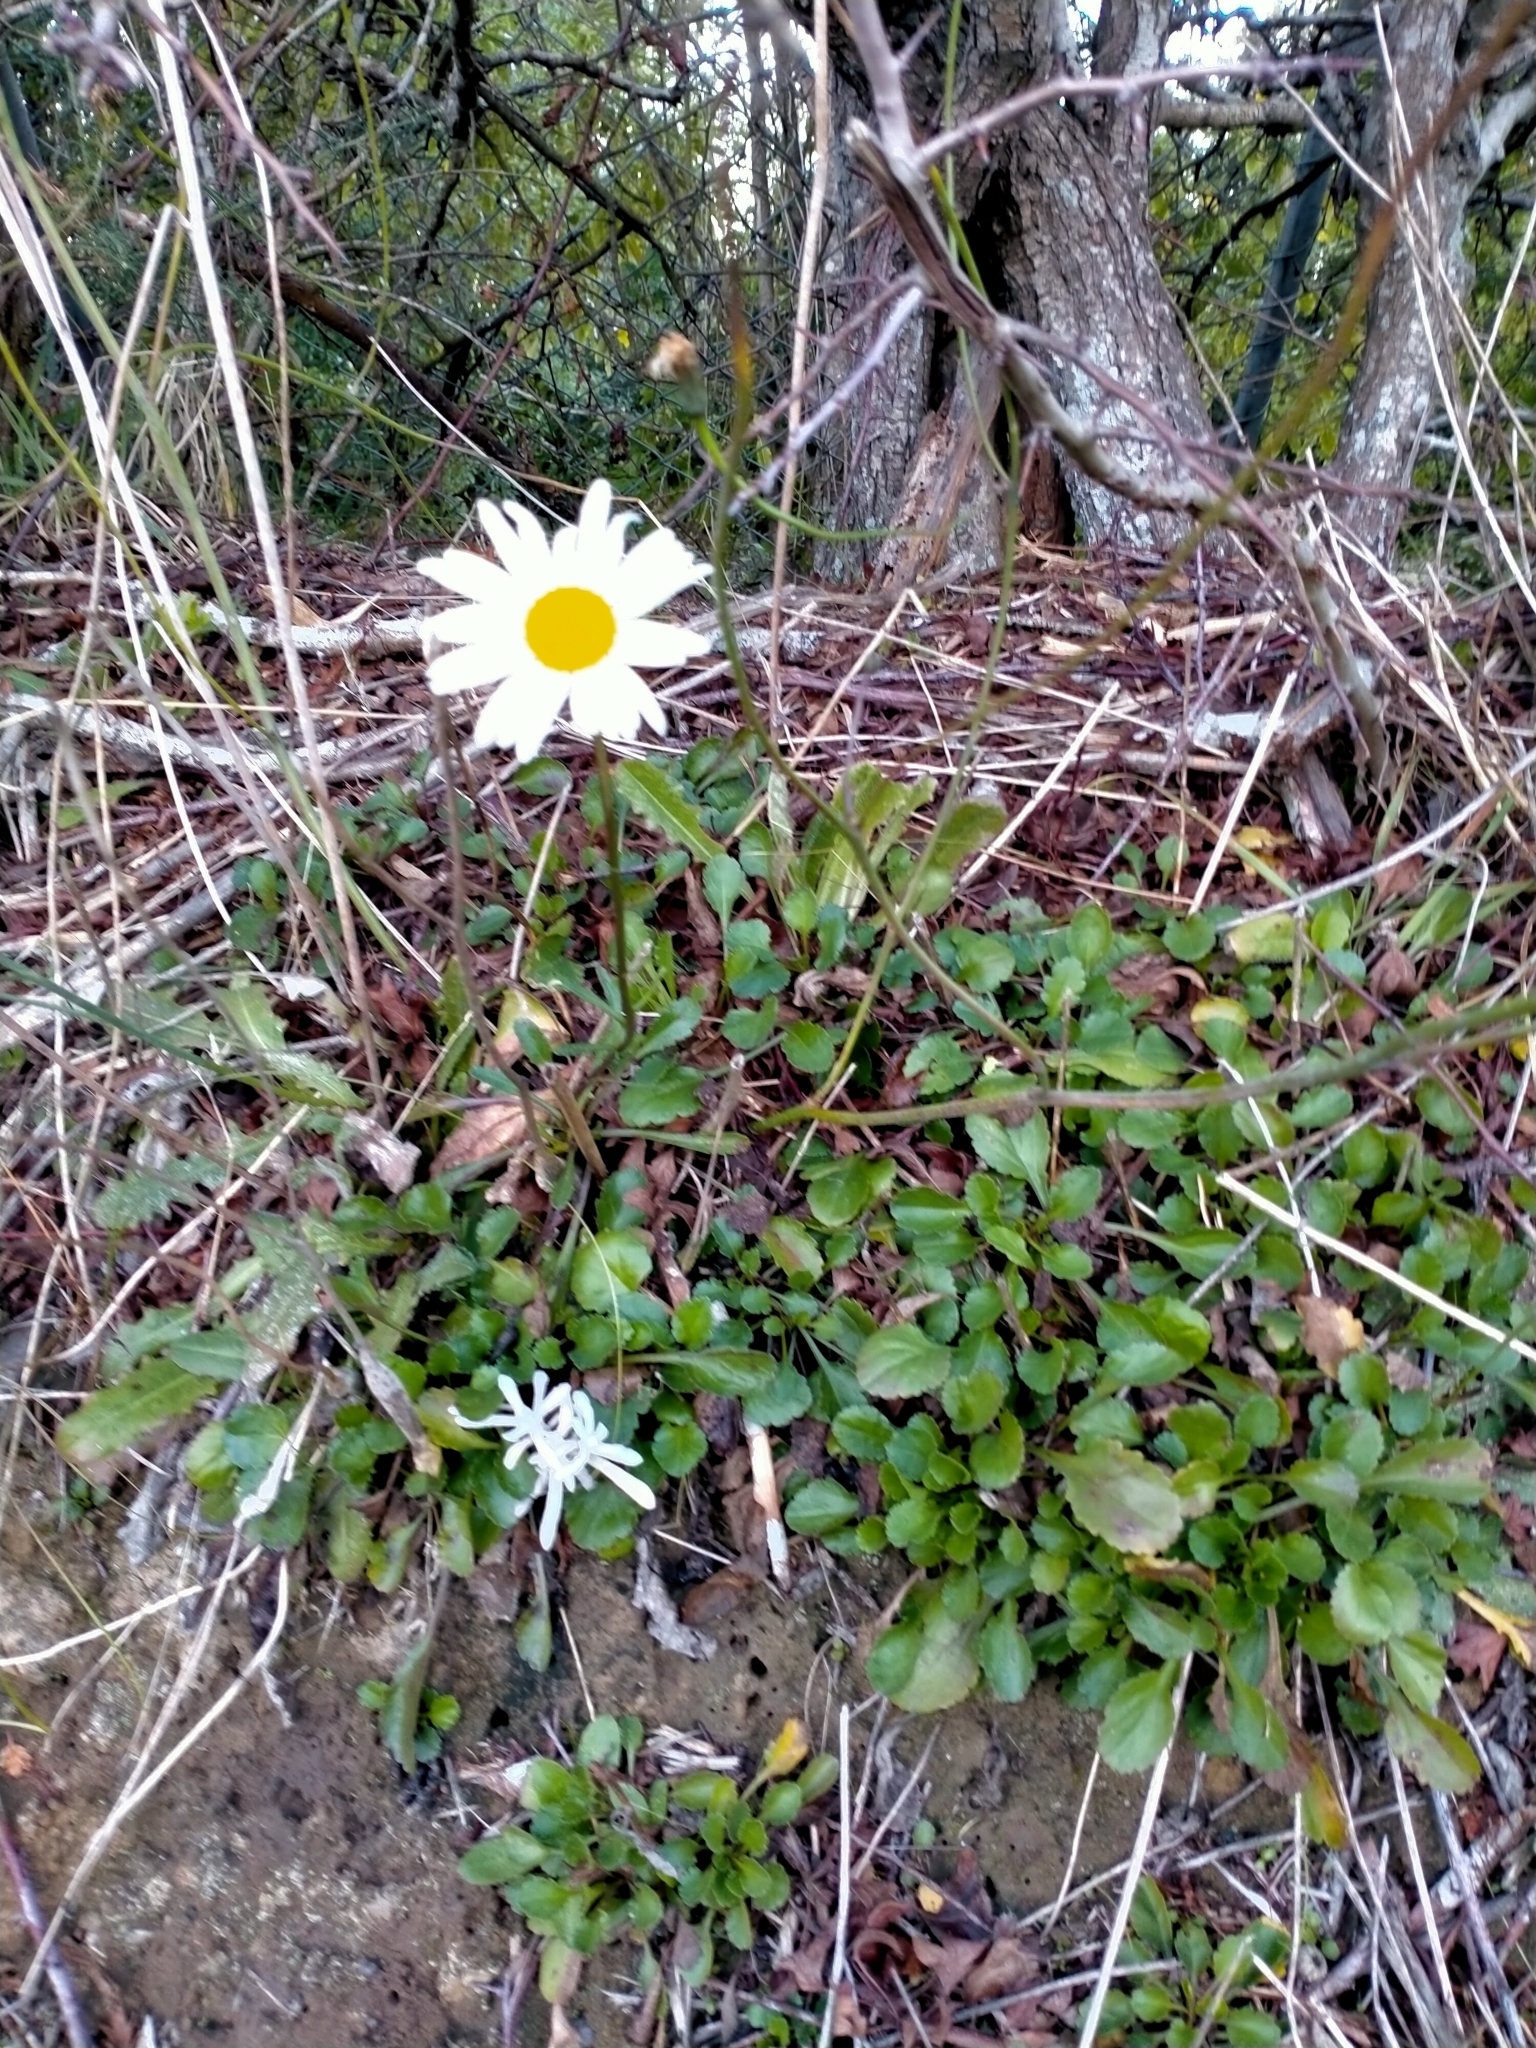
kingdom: Plantae
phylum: Tracheophyta
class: Magnoliopsida
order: Asterales
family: Asteraceae
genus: Leucanthemum
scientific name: Leucanthemum vulgare
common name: Oxeye daisy
